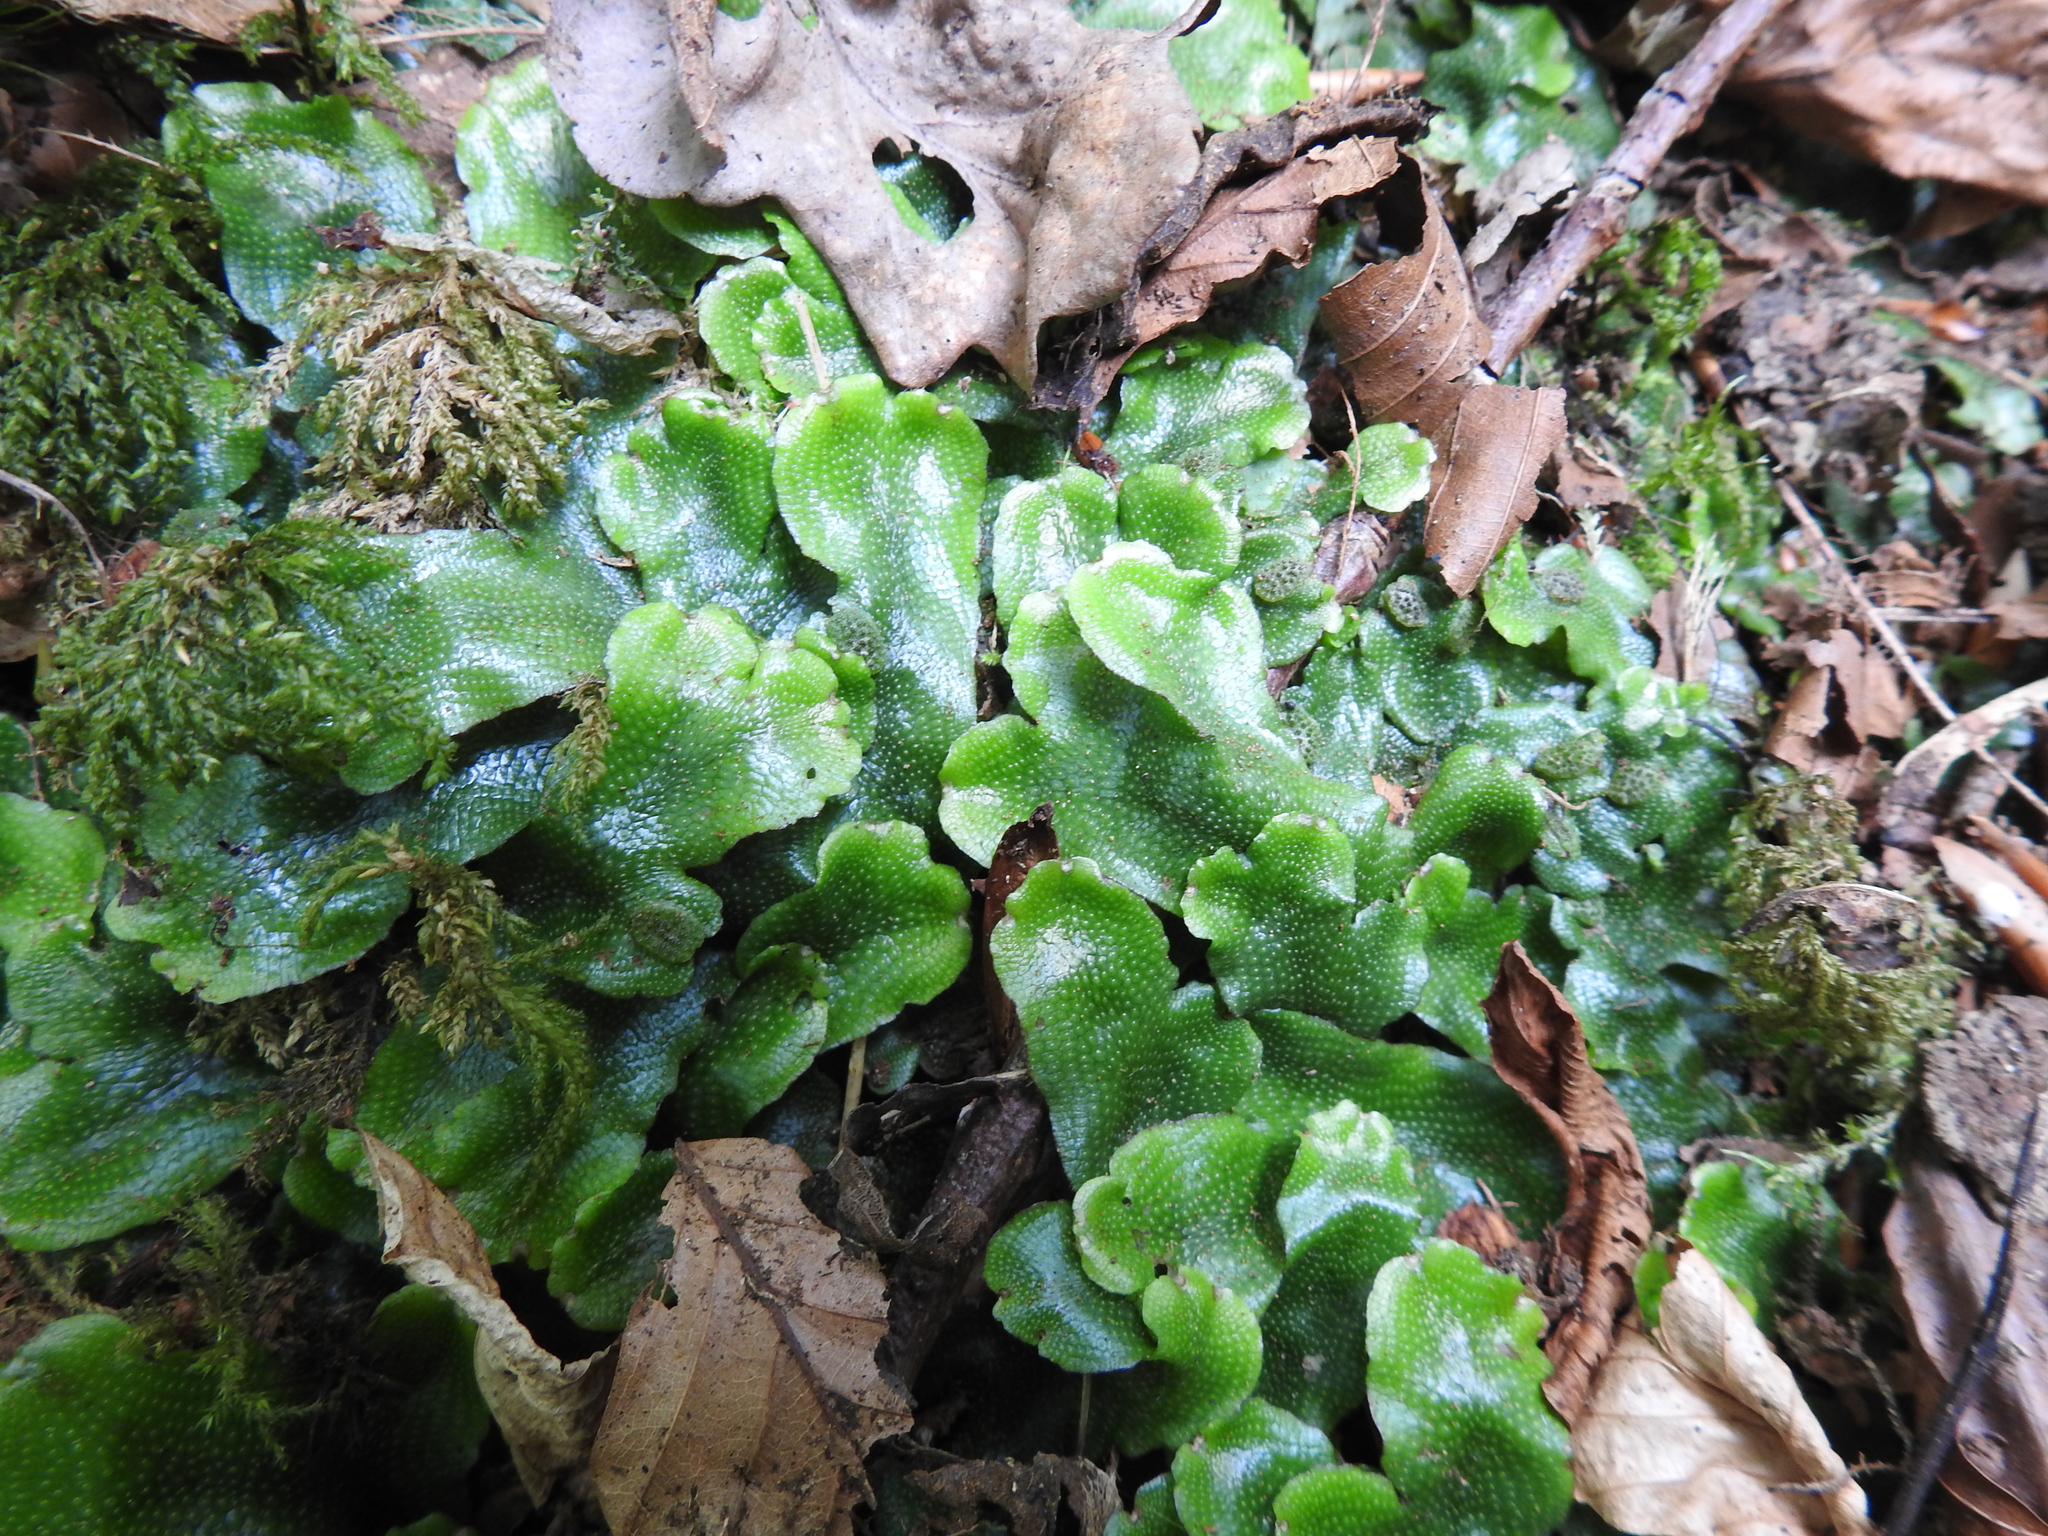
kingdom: Plantae
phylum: Marchantiophyta
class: Marchantiopsida
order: Marchantiales
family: Conocephalaceae
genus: Conocephalum
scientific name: Conocephalum conicum
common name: Great scented liverwort
